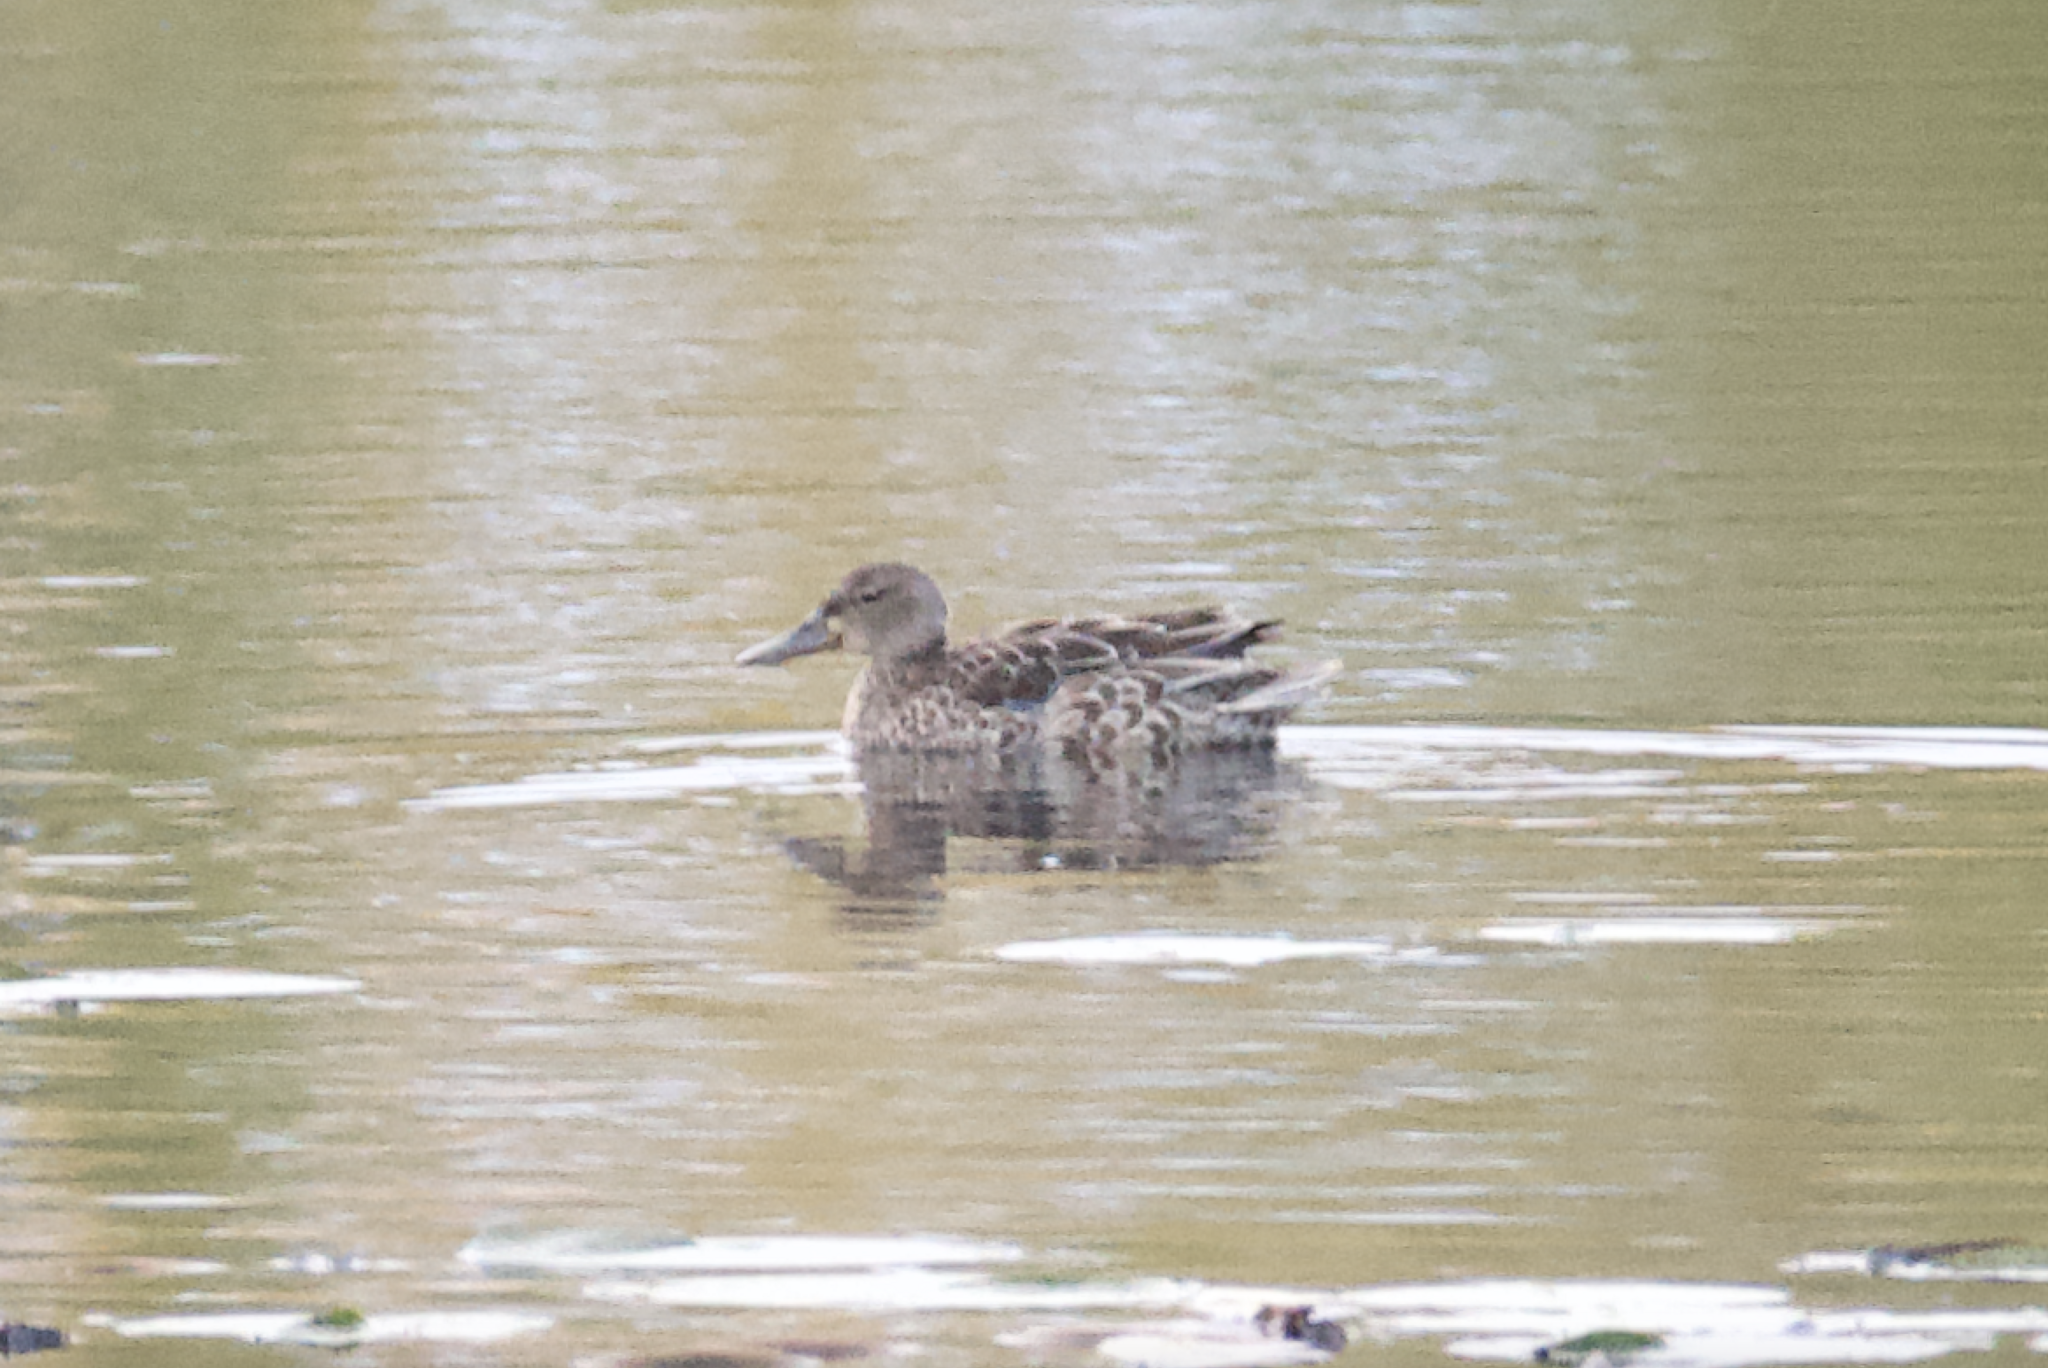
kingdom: Animalia
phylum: Chordata
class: Aves
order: Anseriformes
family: Anatidae
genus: Spatula
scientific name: Spatula
